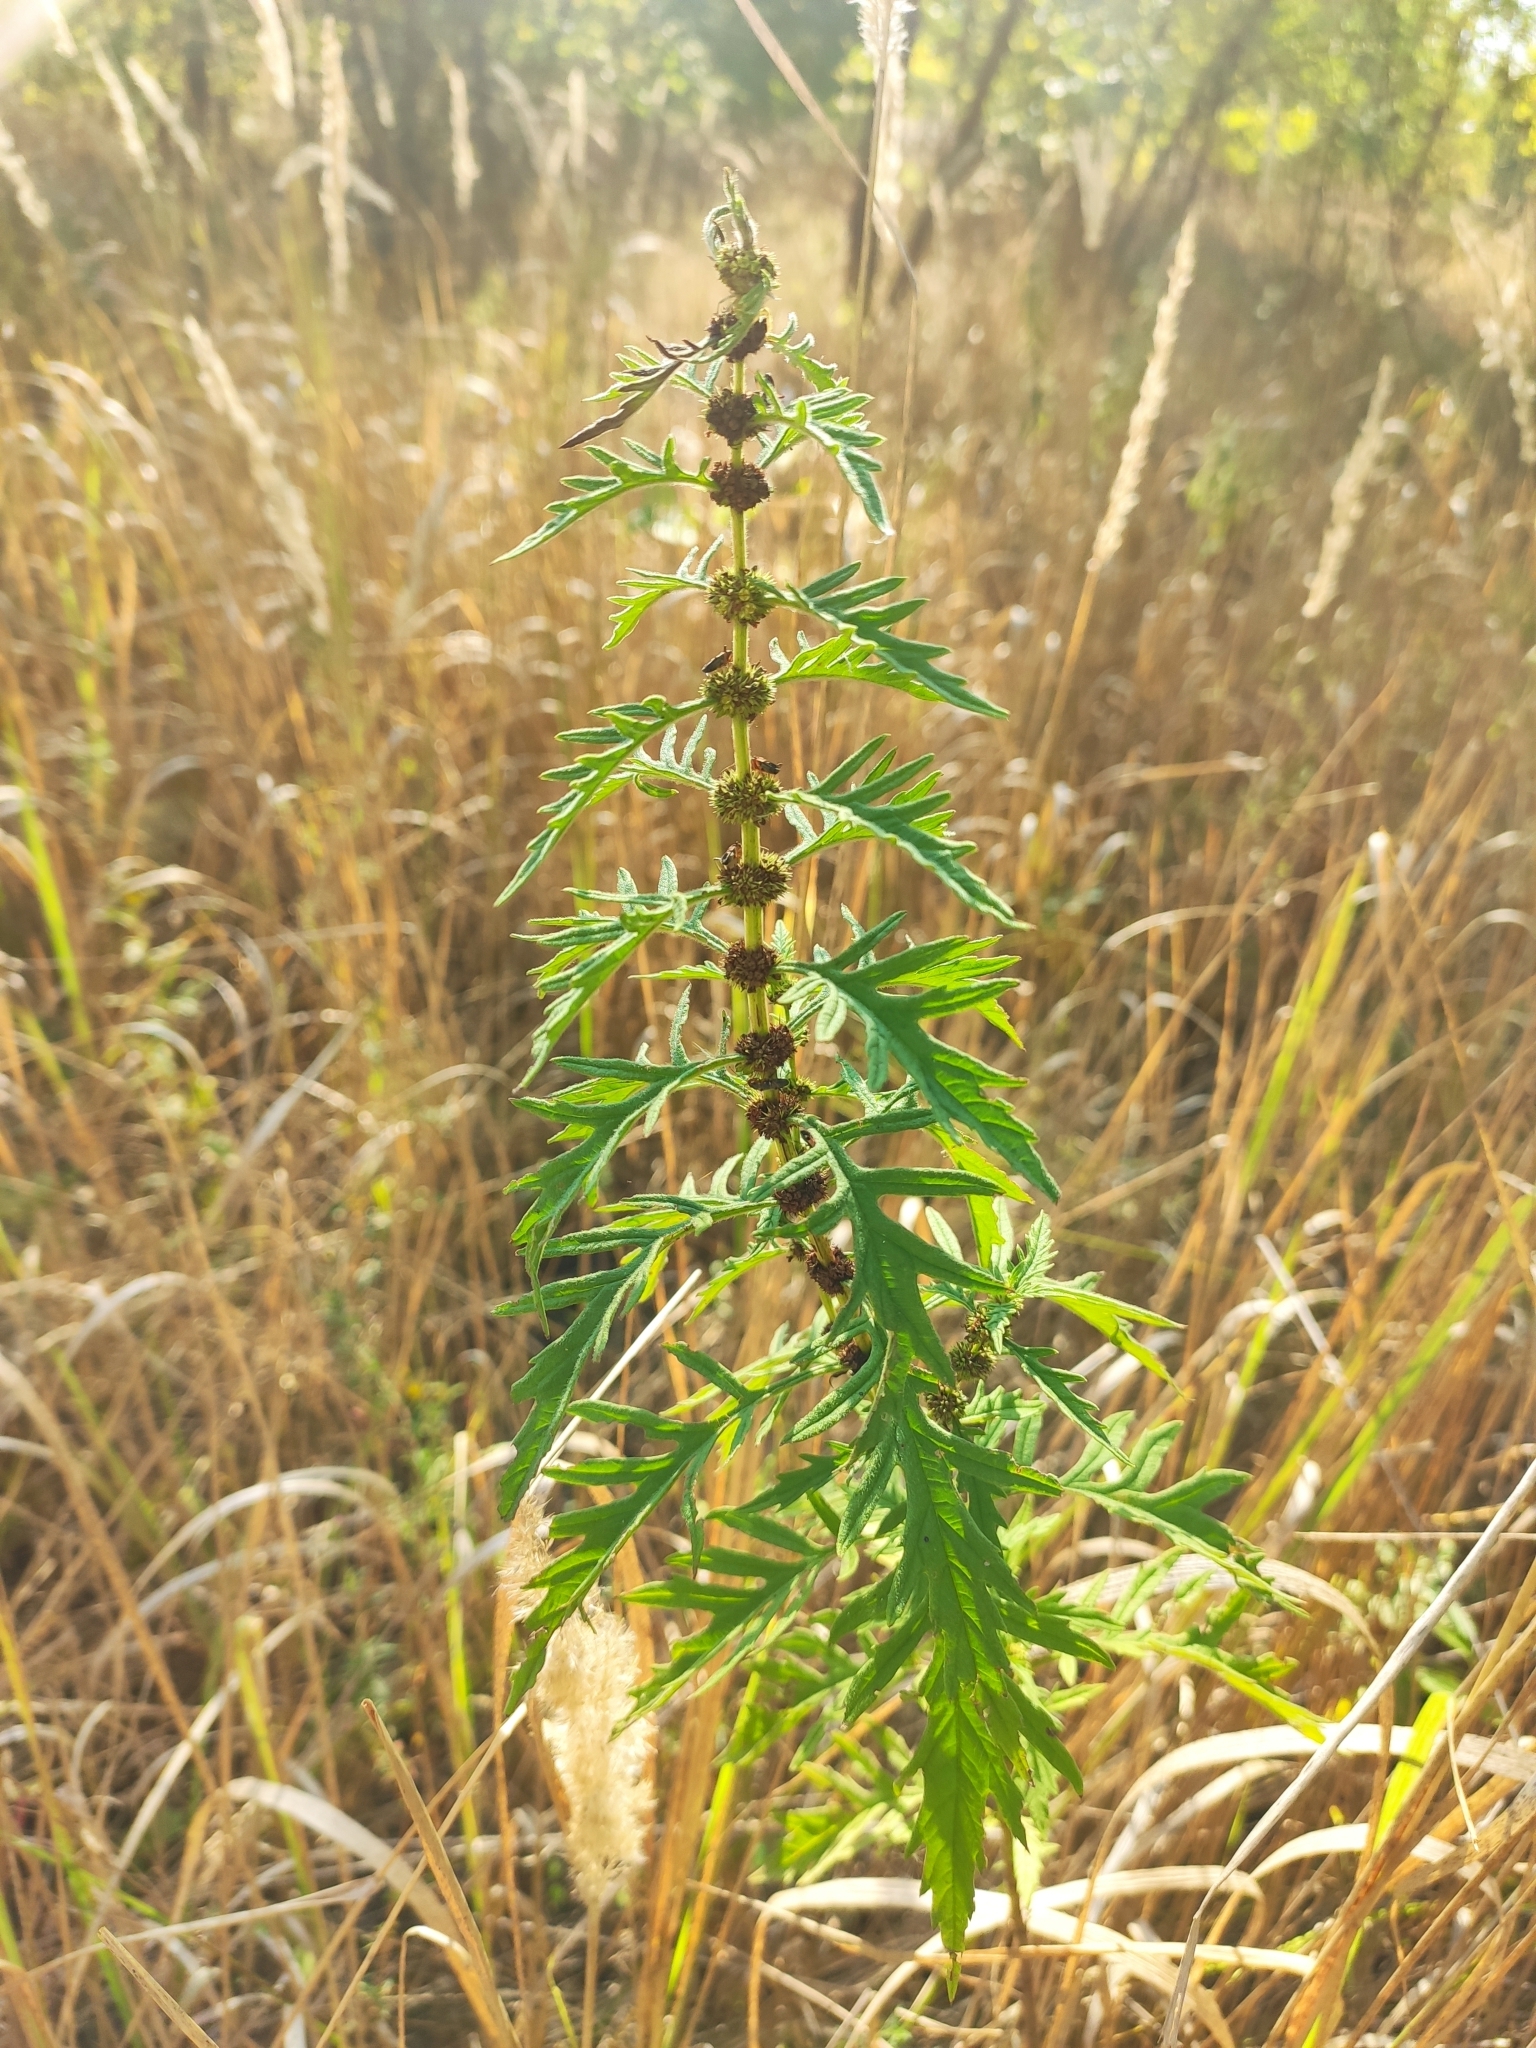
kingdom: Plantae
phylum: Tracheophyta
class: Magnoliopsida
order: Lamiales
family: Lamiaceae
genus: Lycopus
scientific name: Lycopus exaltatus
